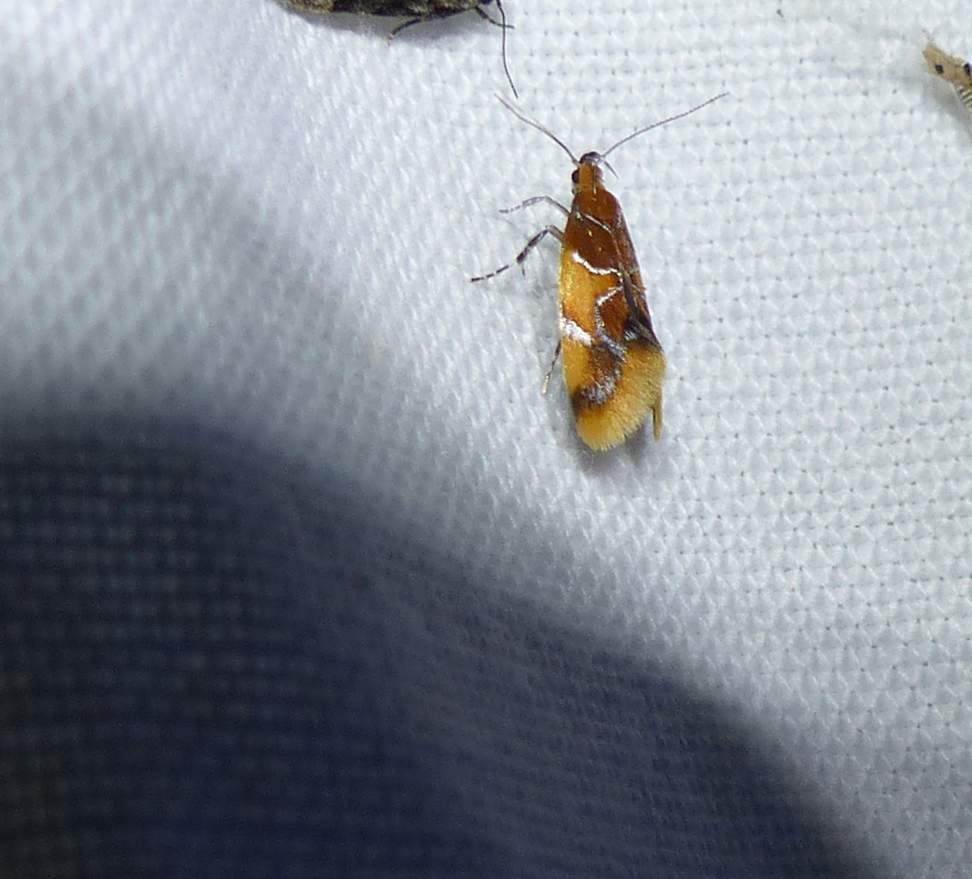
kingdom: Animalia
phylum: Arthropoda
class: Insecta
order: Lepidoptera
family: Oecophoridae
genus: Callima
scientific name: Callima argenticinctella
